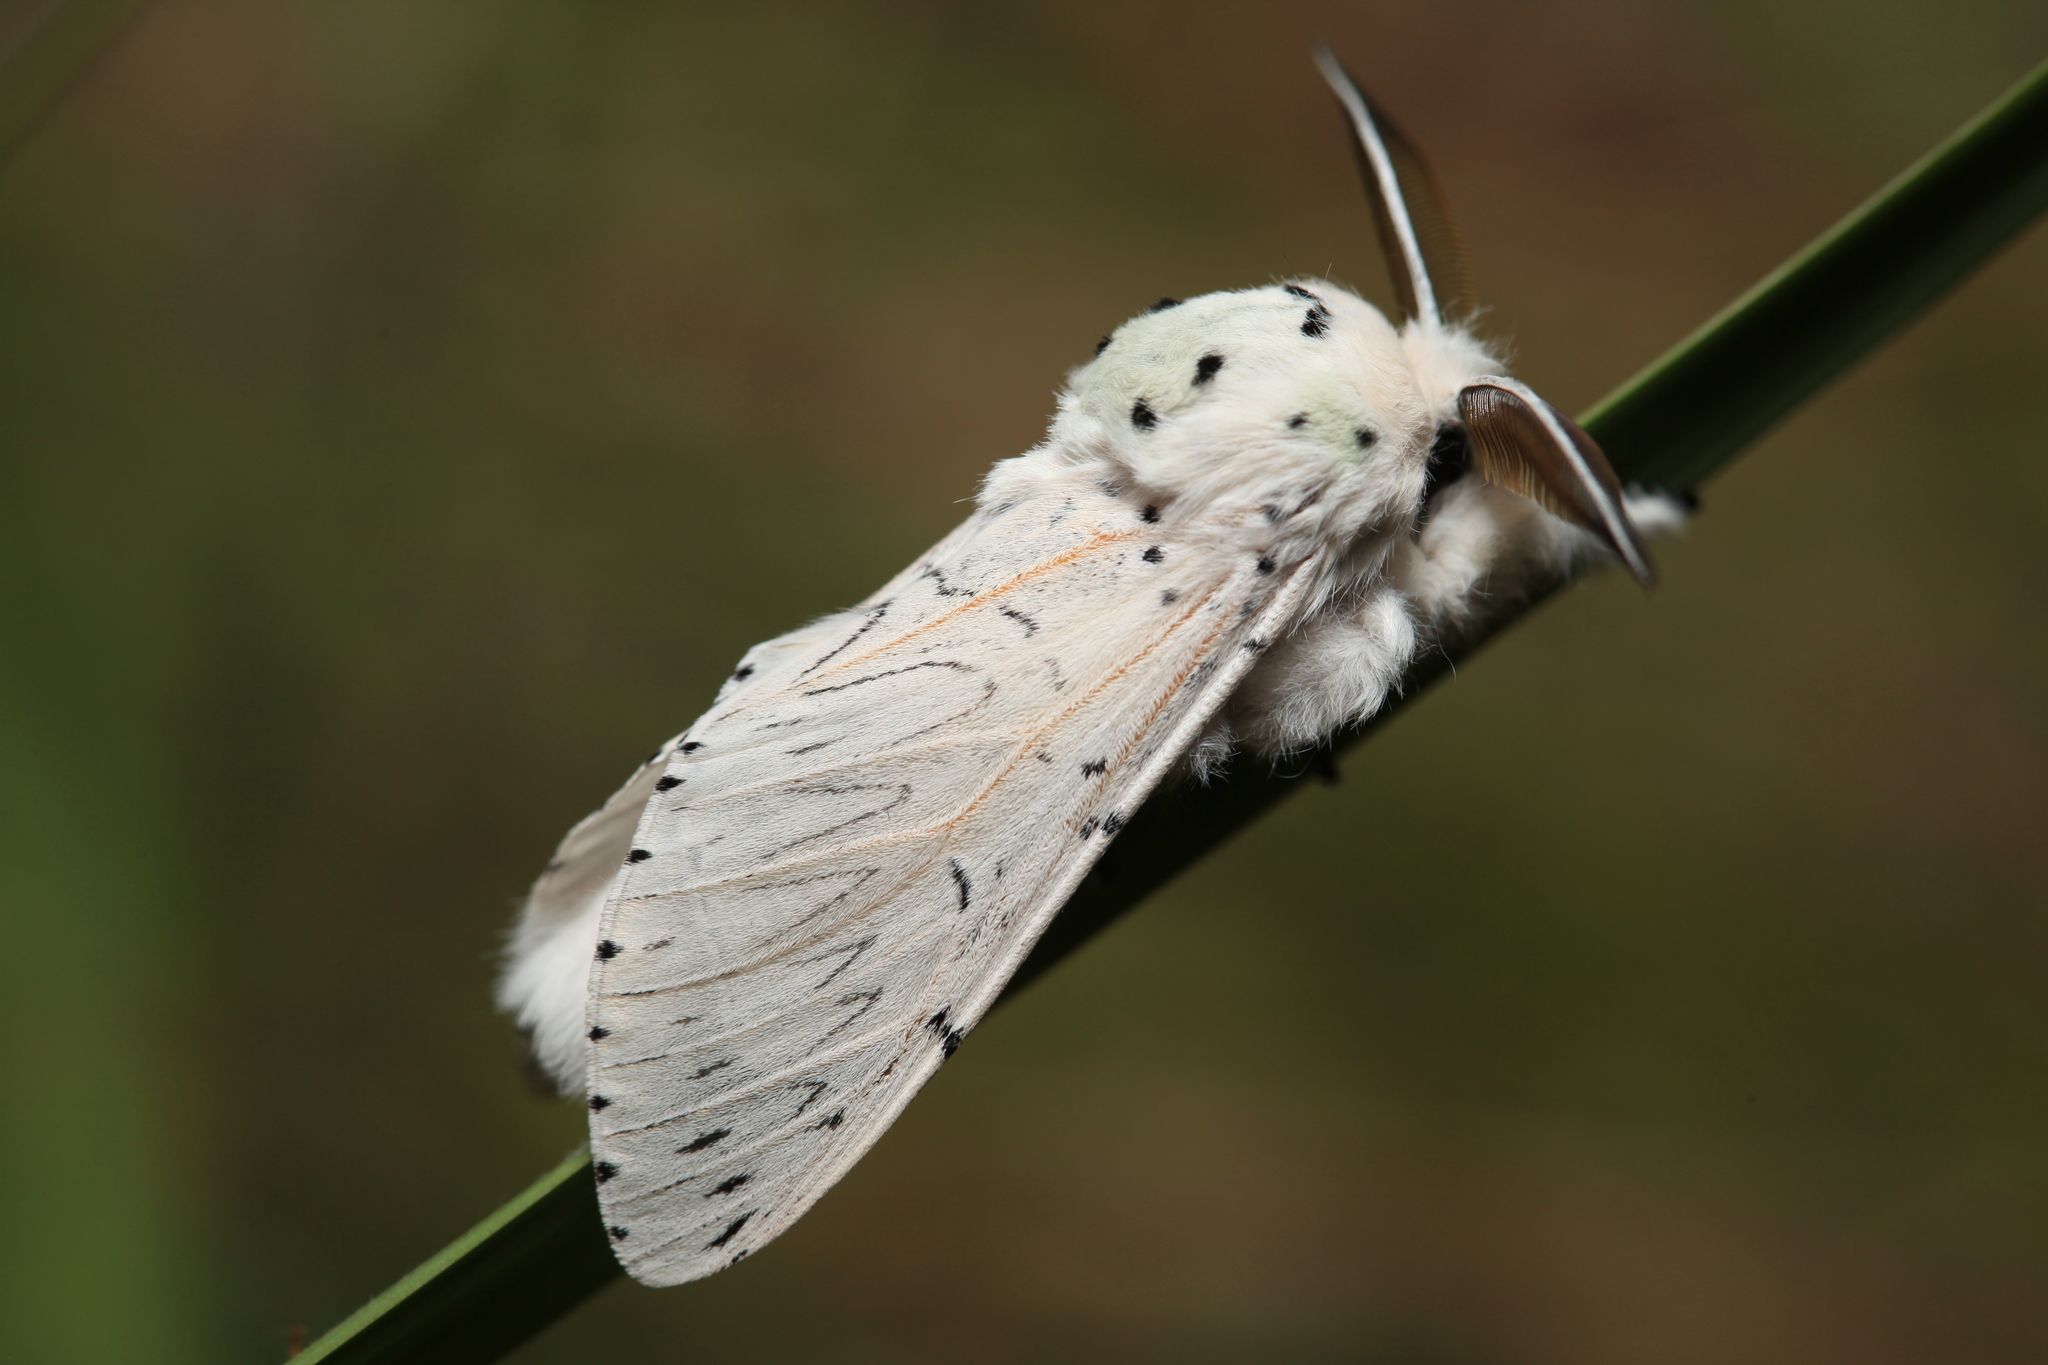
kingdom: Animalia
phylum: Arthropoda
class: Insecta
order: Lepidoptera
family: Notodontidae
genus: Cerura
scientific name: Cerura przewalskii
